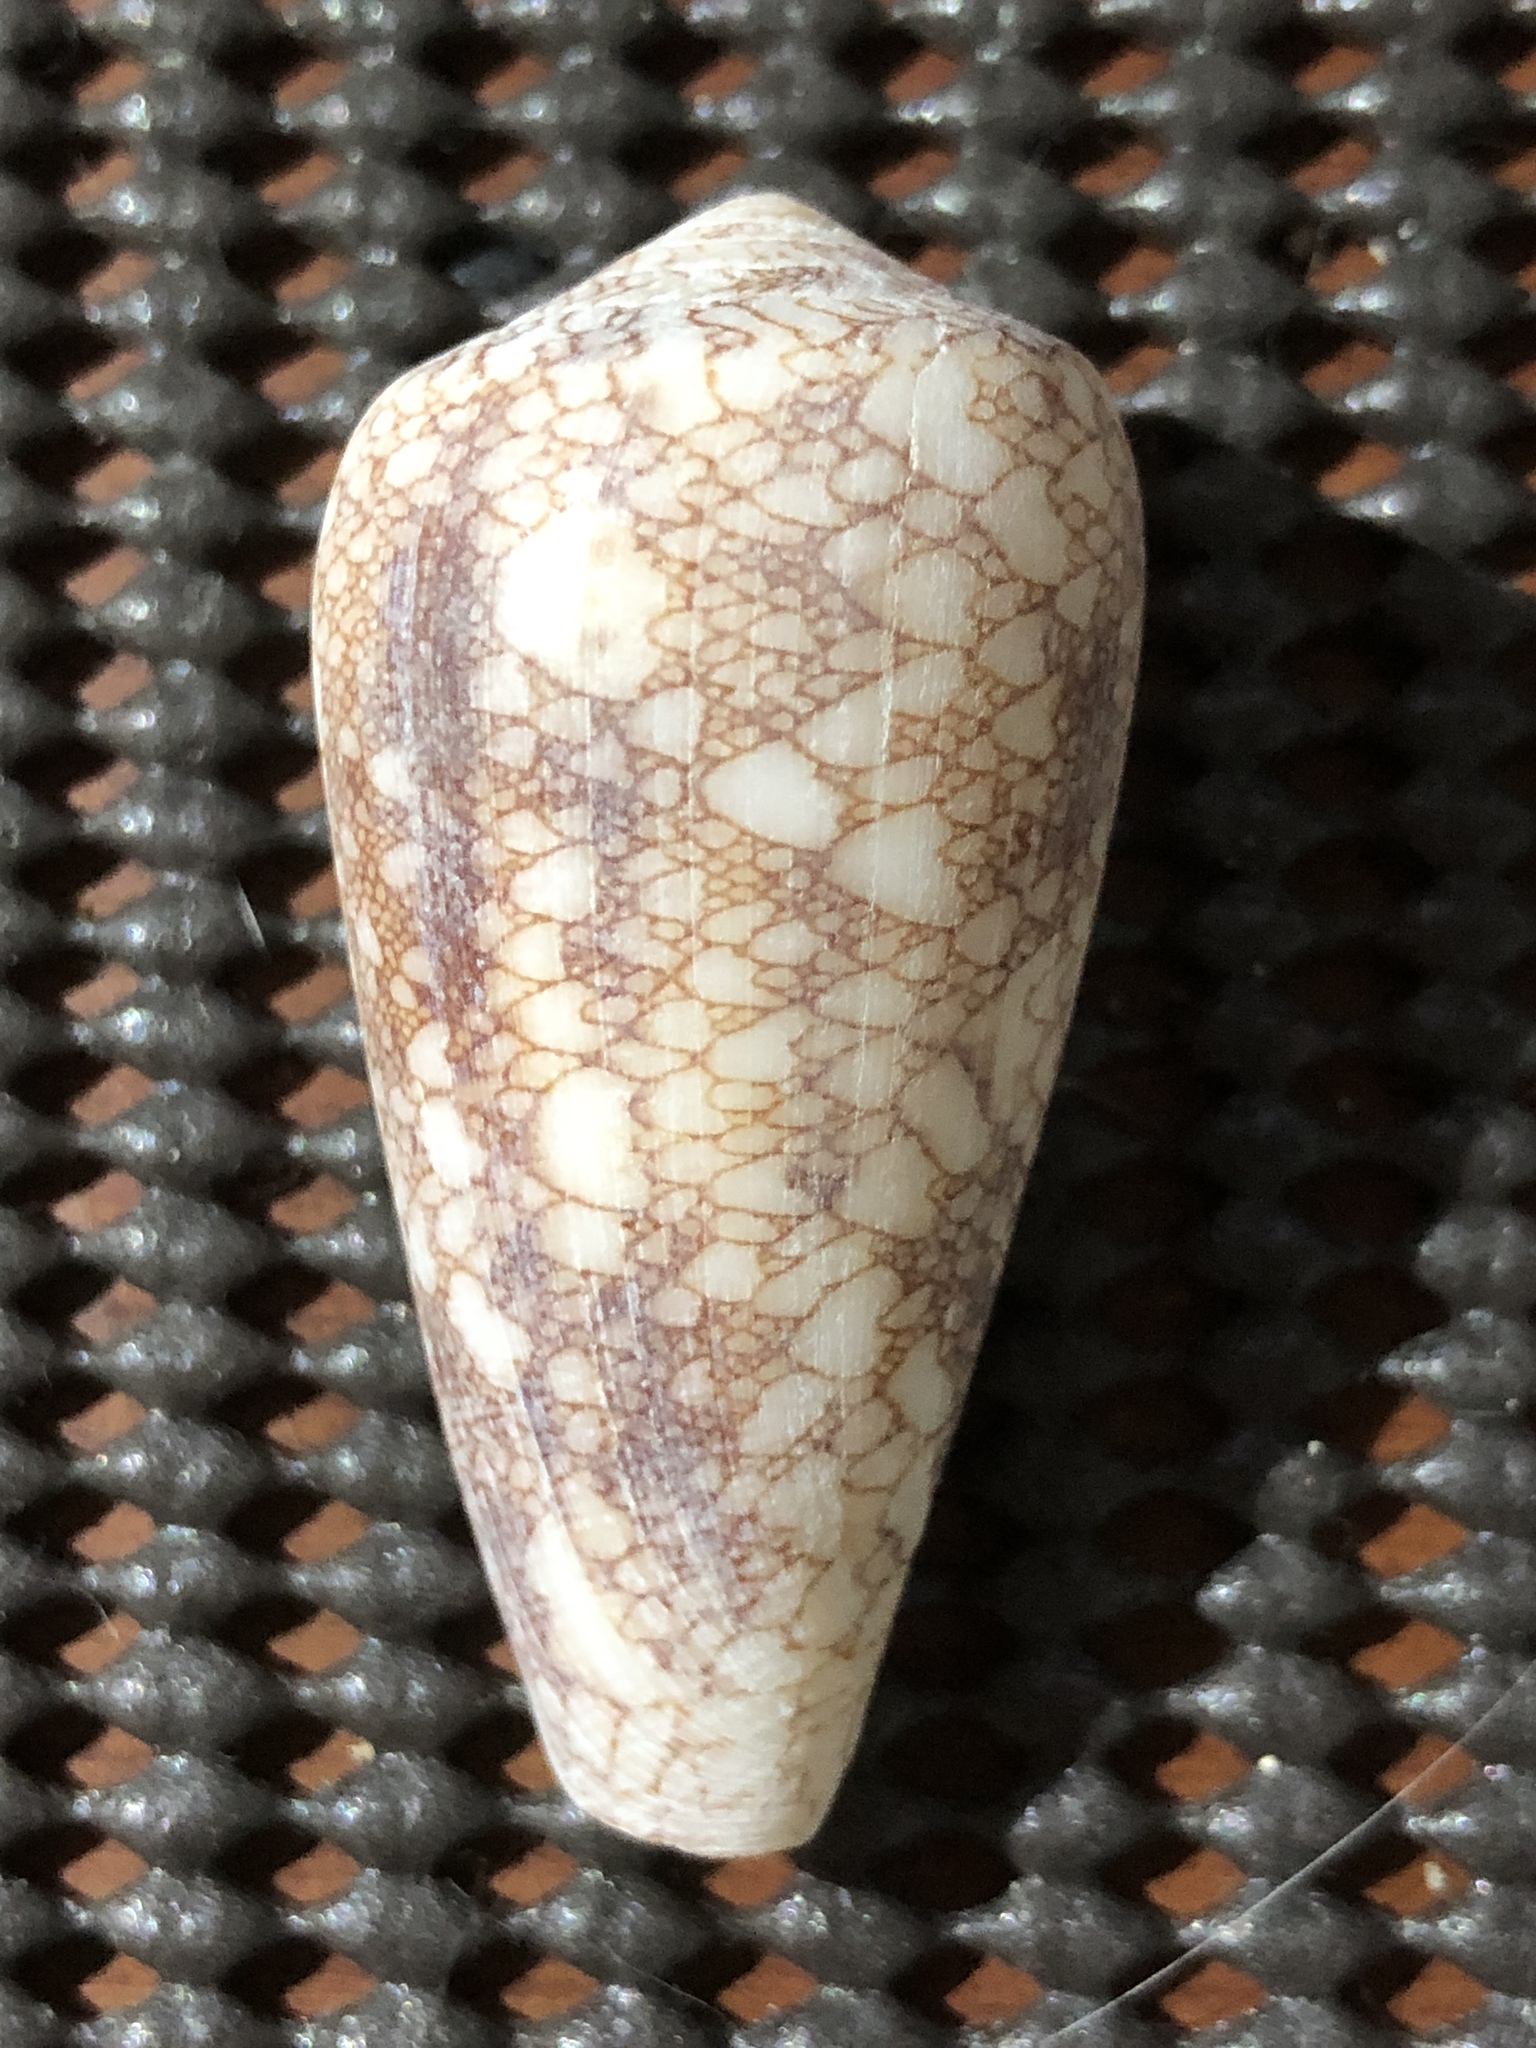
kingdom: Animalia
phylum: Mollusca
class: Gastropoda
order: Neogastropoda
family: Conidae
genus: Conus
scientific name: Conus omaria
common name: Omaria cone
